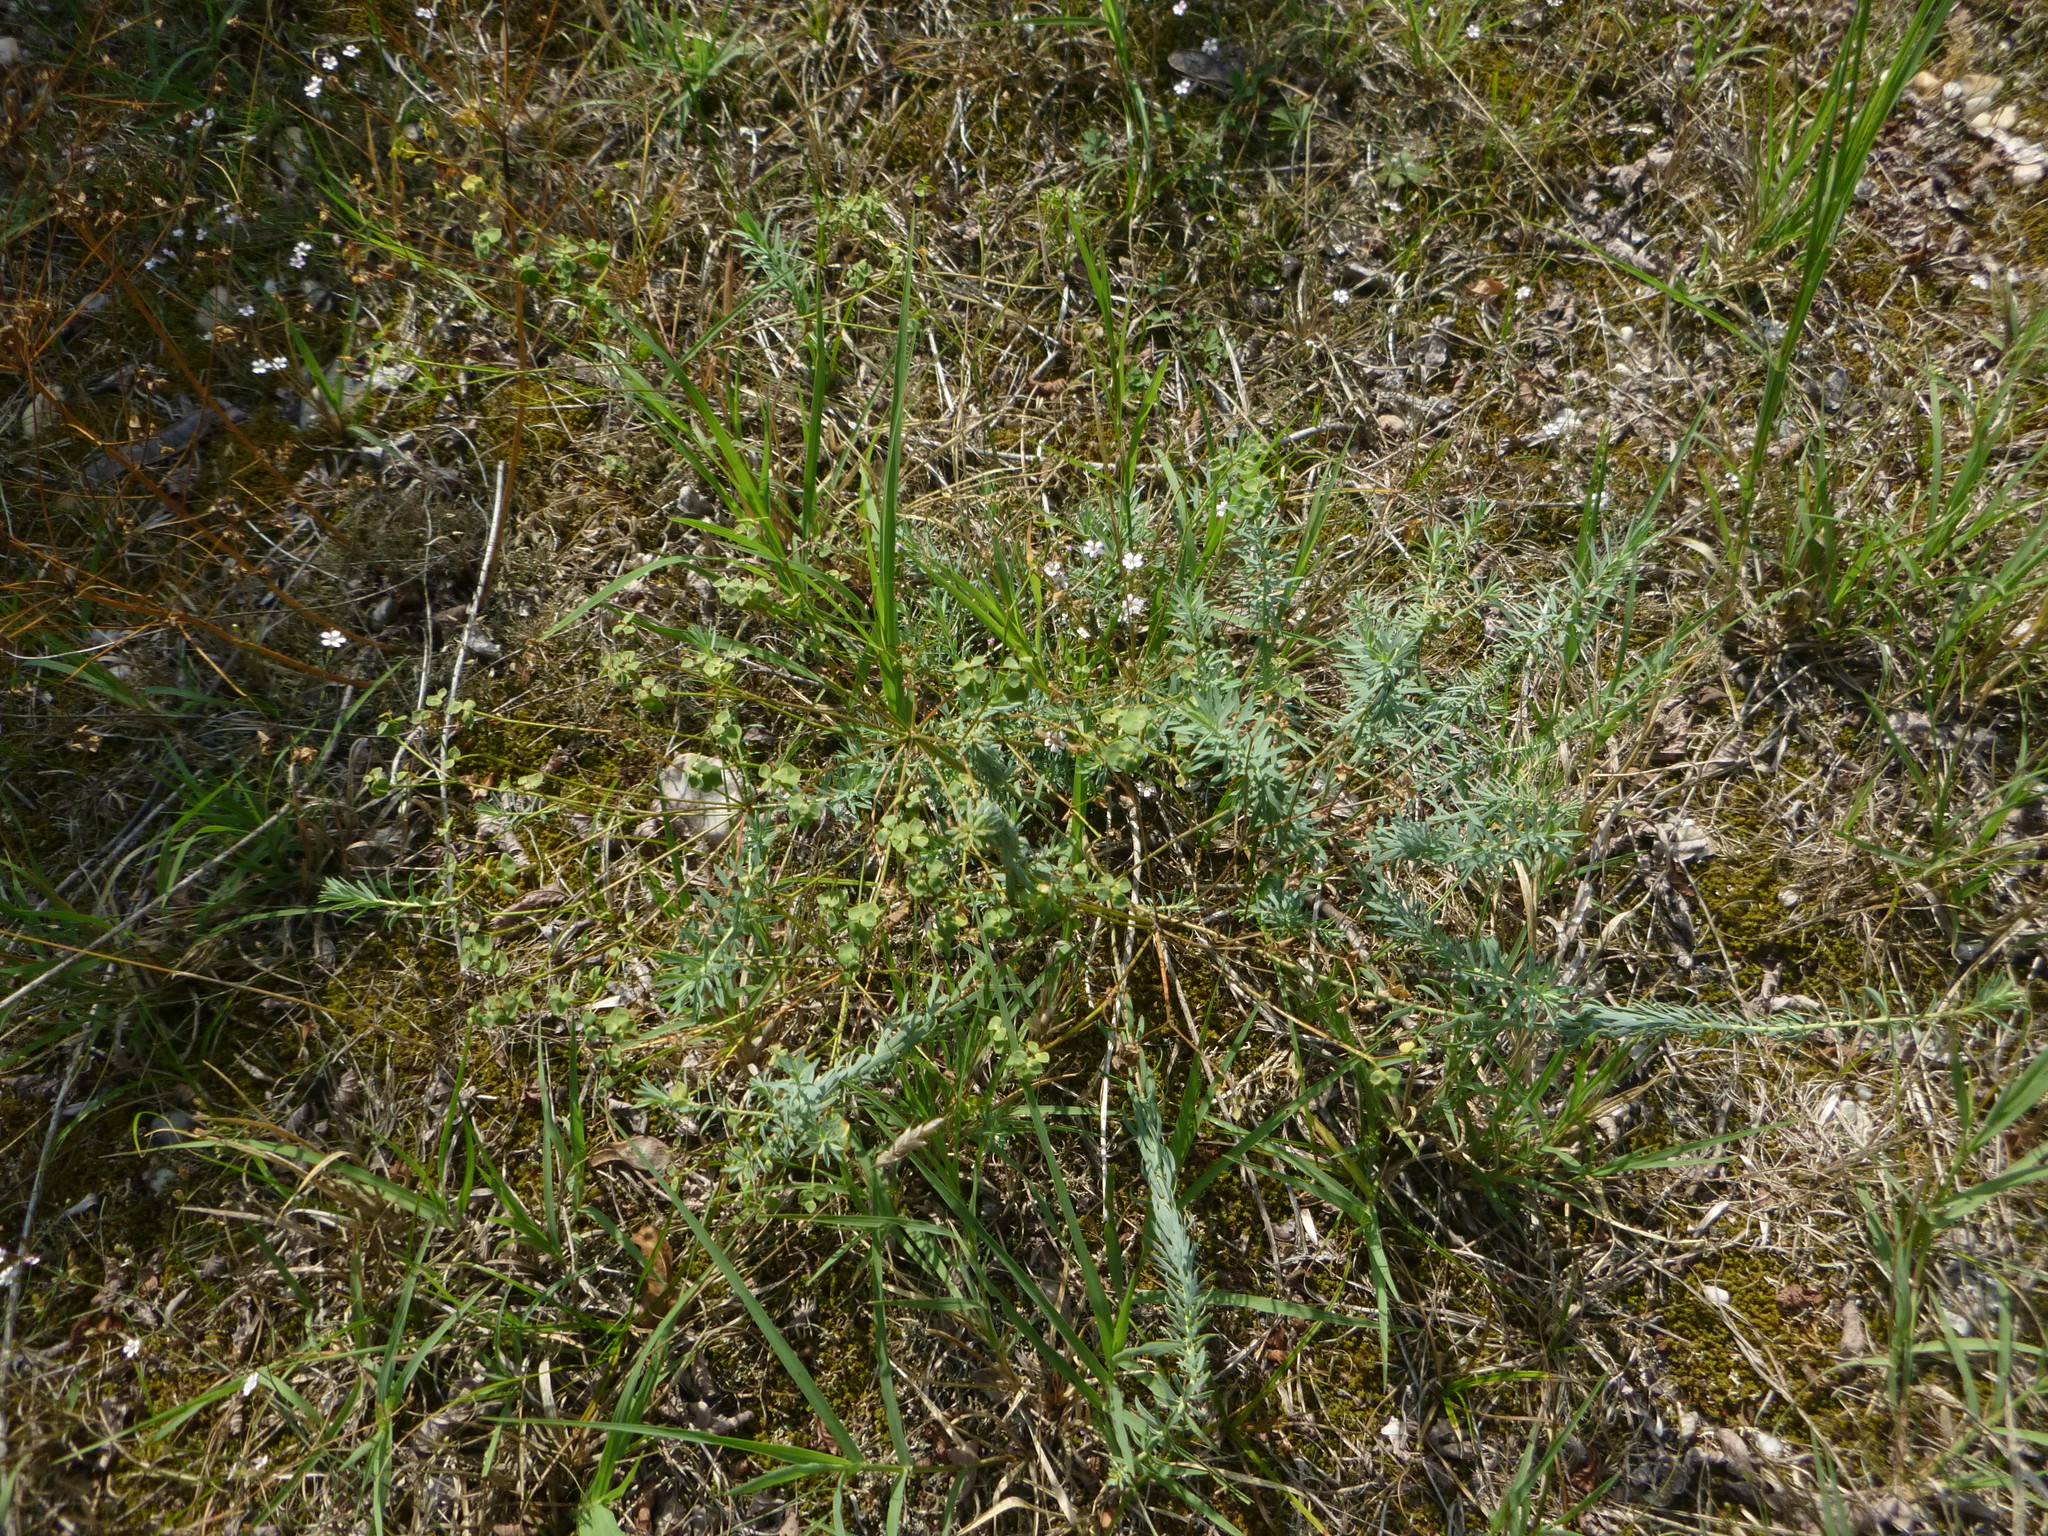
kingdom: Plantae
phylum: Tracheophyta
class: Magnoliopsida
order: Malpighiales
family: Euphorbiaceae
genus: Euphorbia
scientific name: Euphorbia seguieriana
